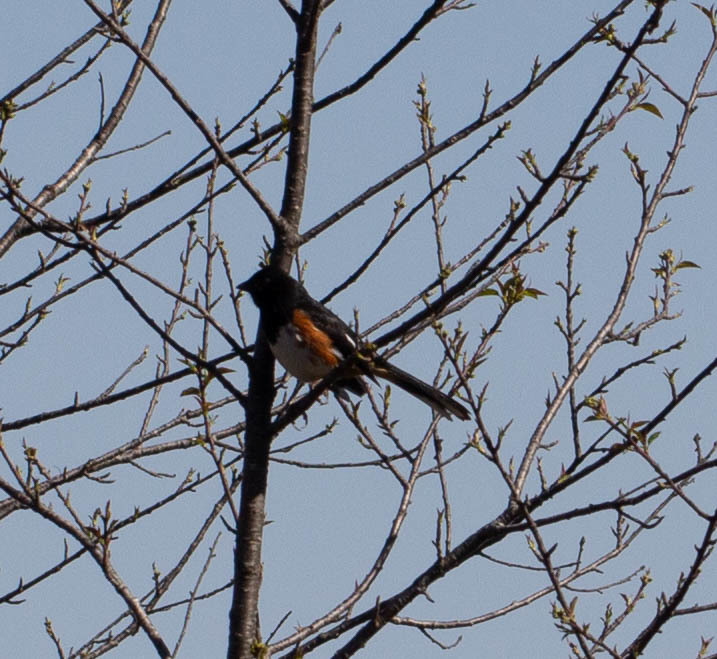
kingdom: Animalia
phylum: Chordata
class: Aves
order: Passeriformes
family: Passerellidae
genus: Pipilo
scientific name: Pipilo erythrophthalmus
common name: Eastern towhee
